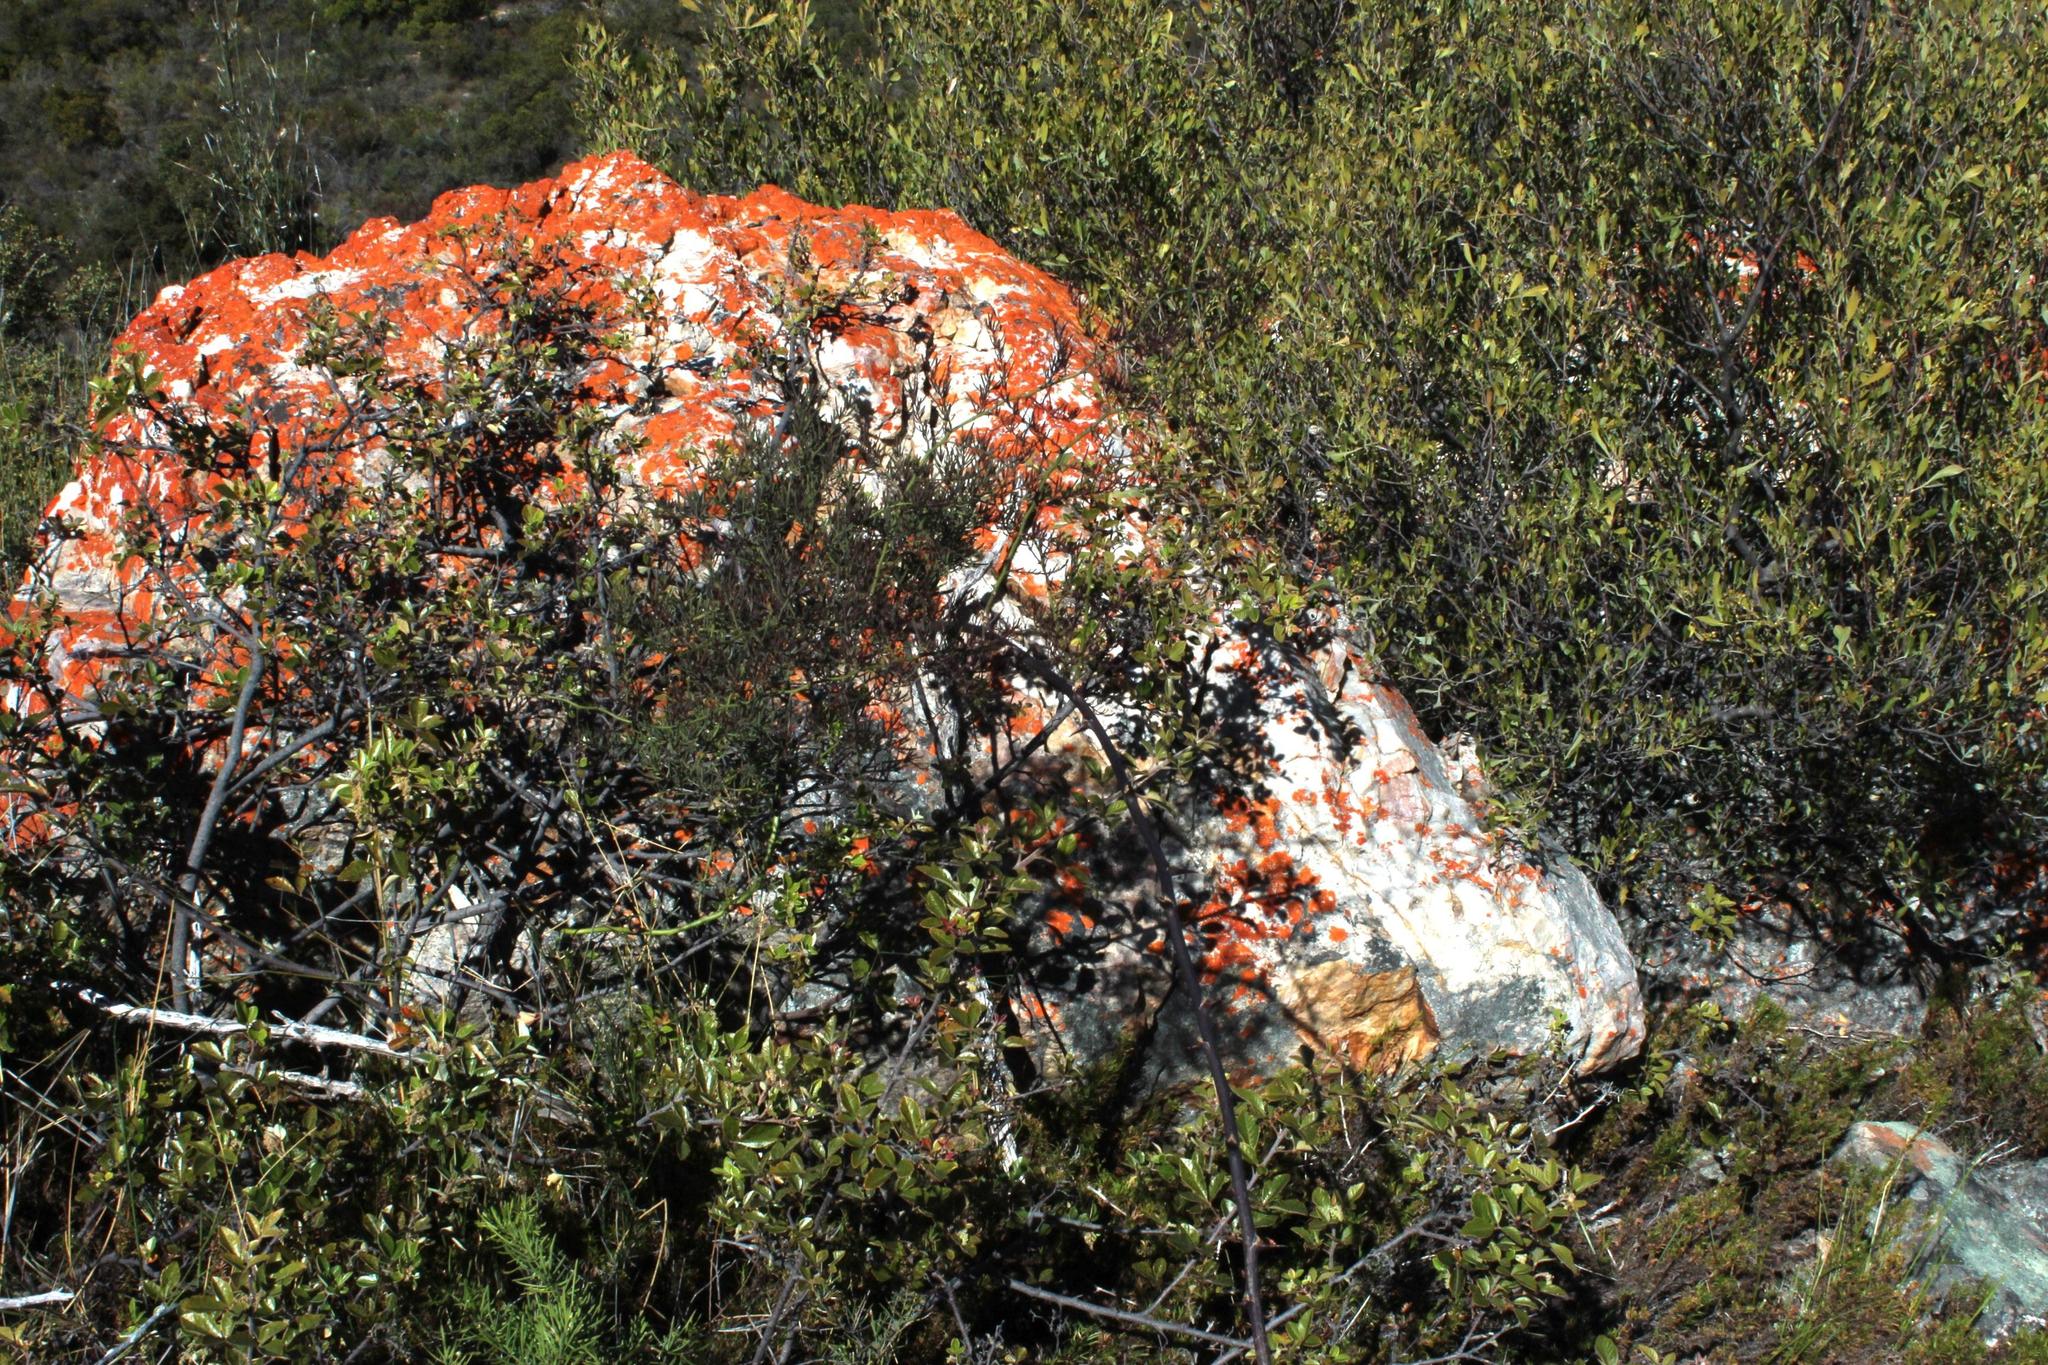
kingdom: Plantae
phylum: Tracheophyta
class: Magnoliopsida
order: Sapindales
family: Anacardiaceae
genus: Searsia
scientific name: Searsia tomentosa
